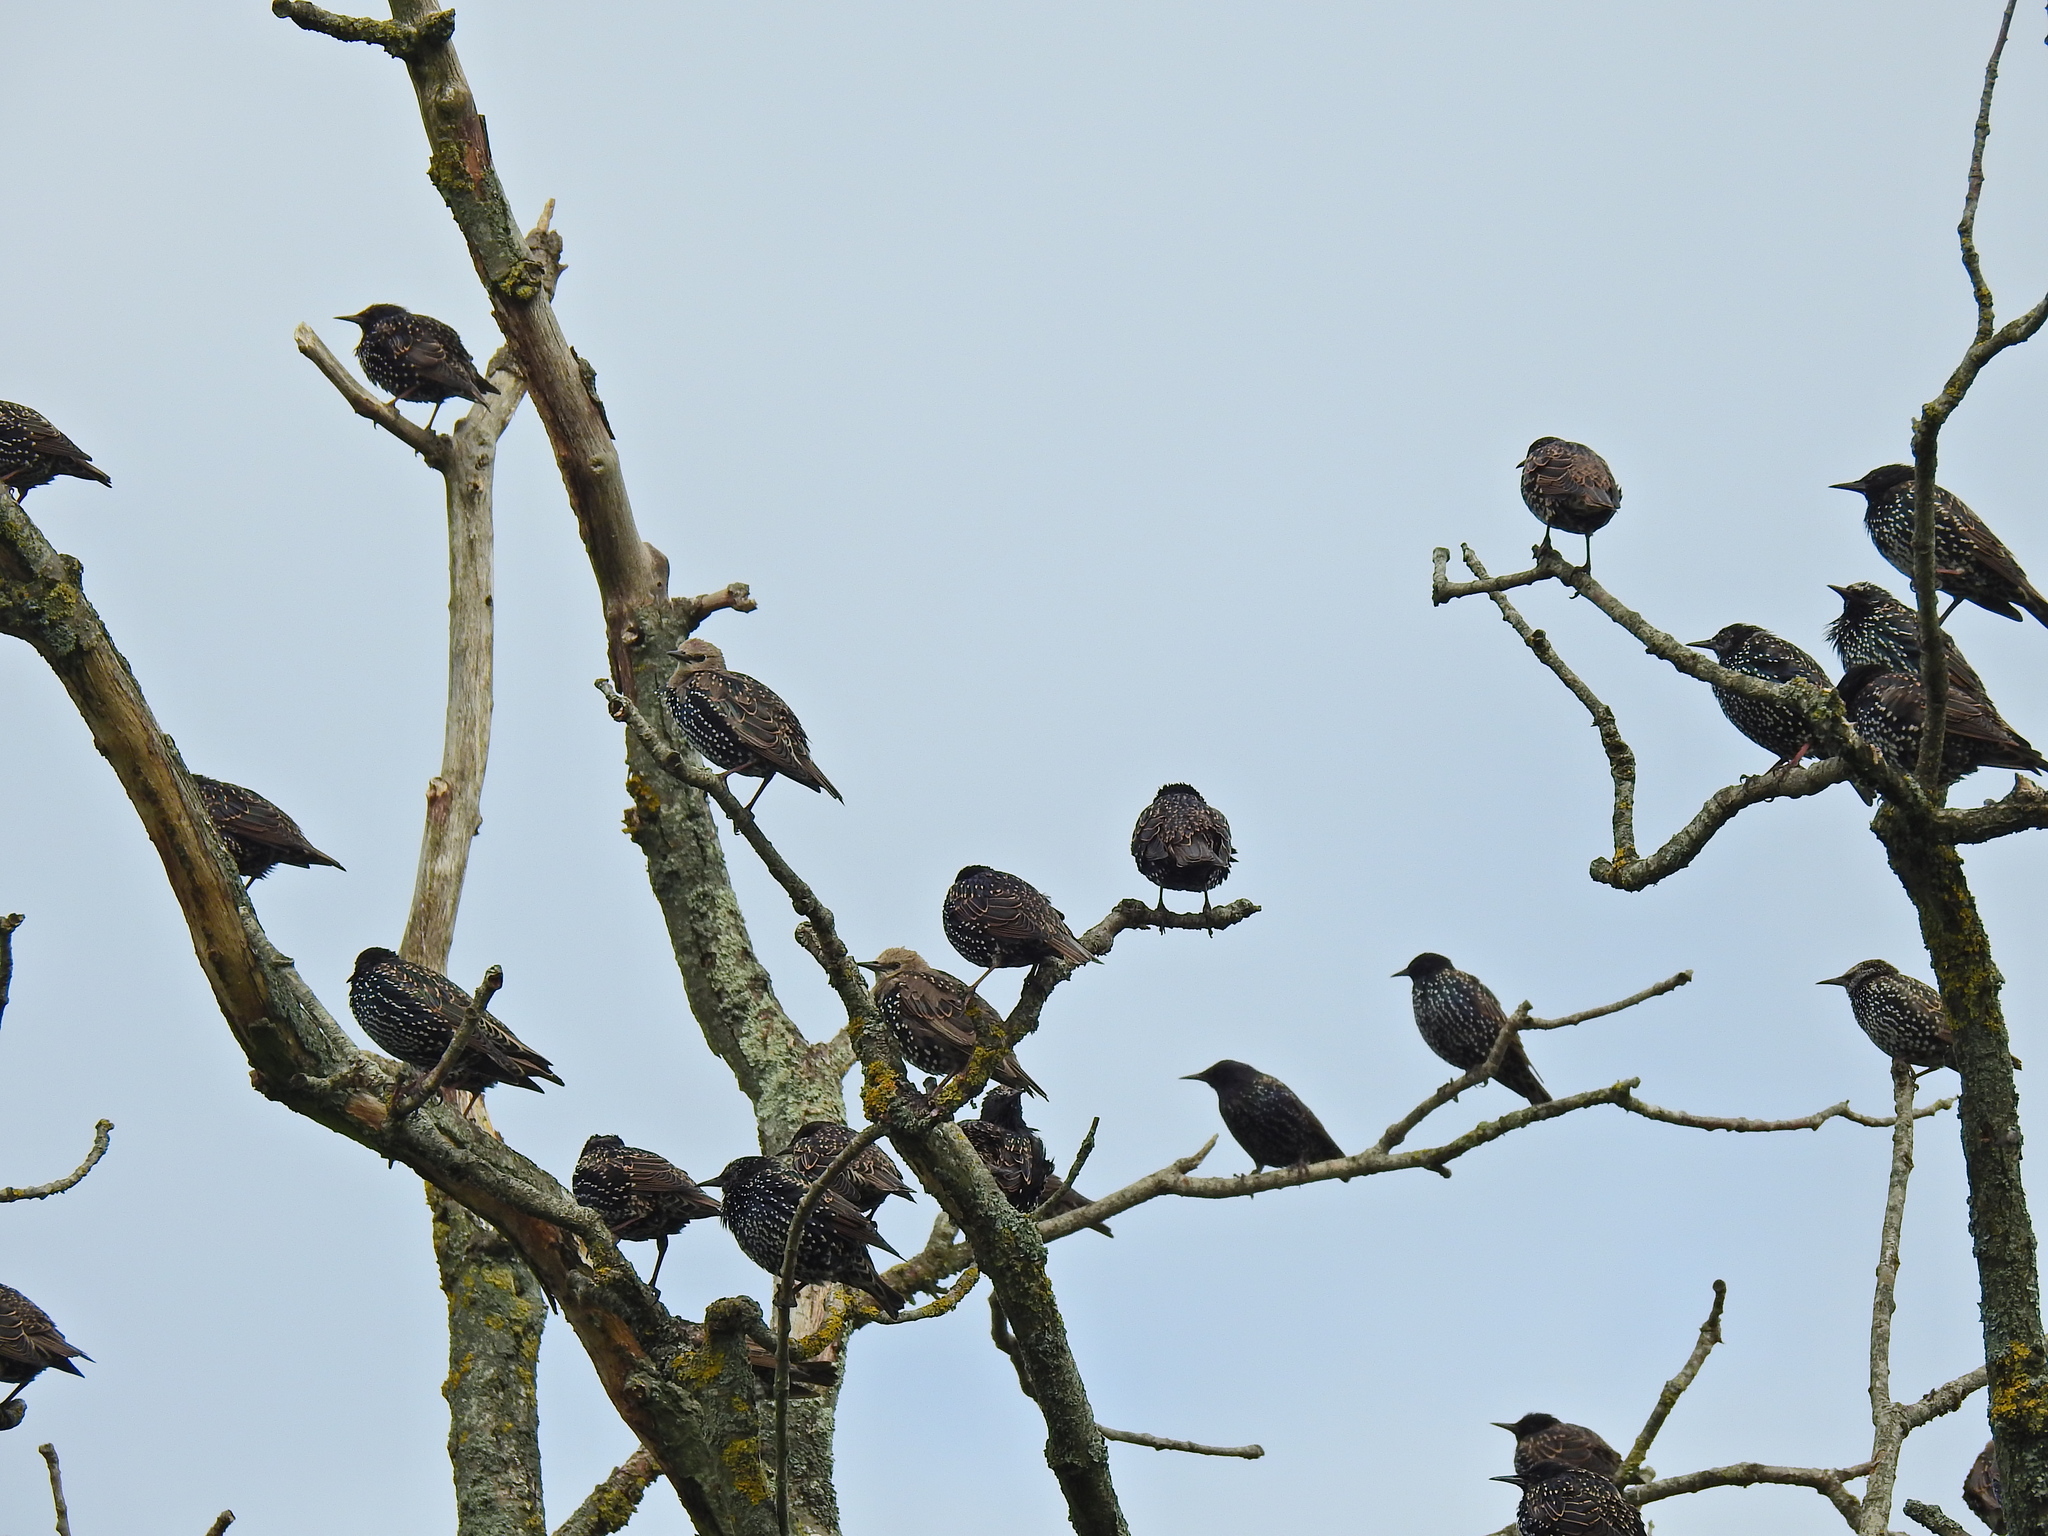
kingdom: Animalia
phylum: Chordata
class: Aves
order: Passeriformes
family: Sturnidae
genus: Sturnus
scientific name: Sturnus vulgaris
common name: Common starling
